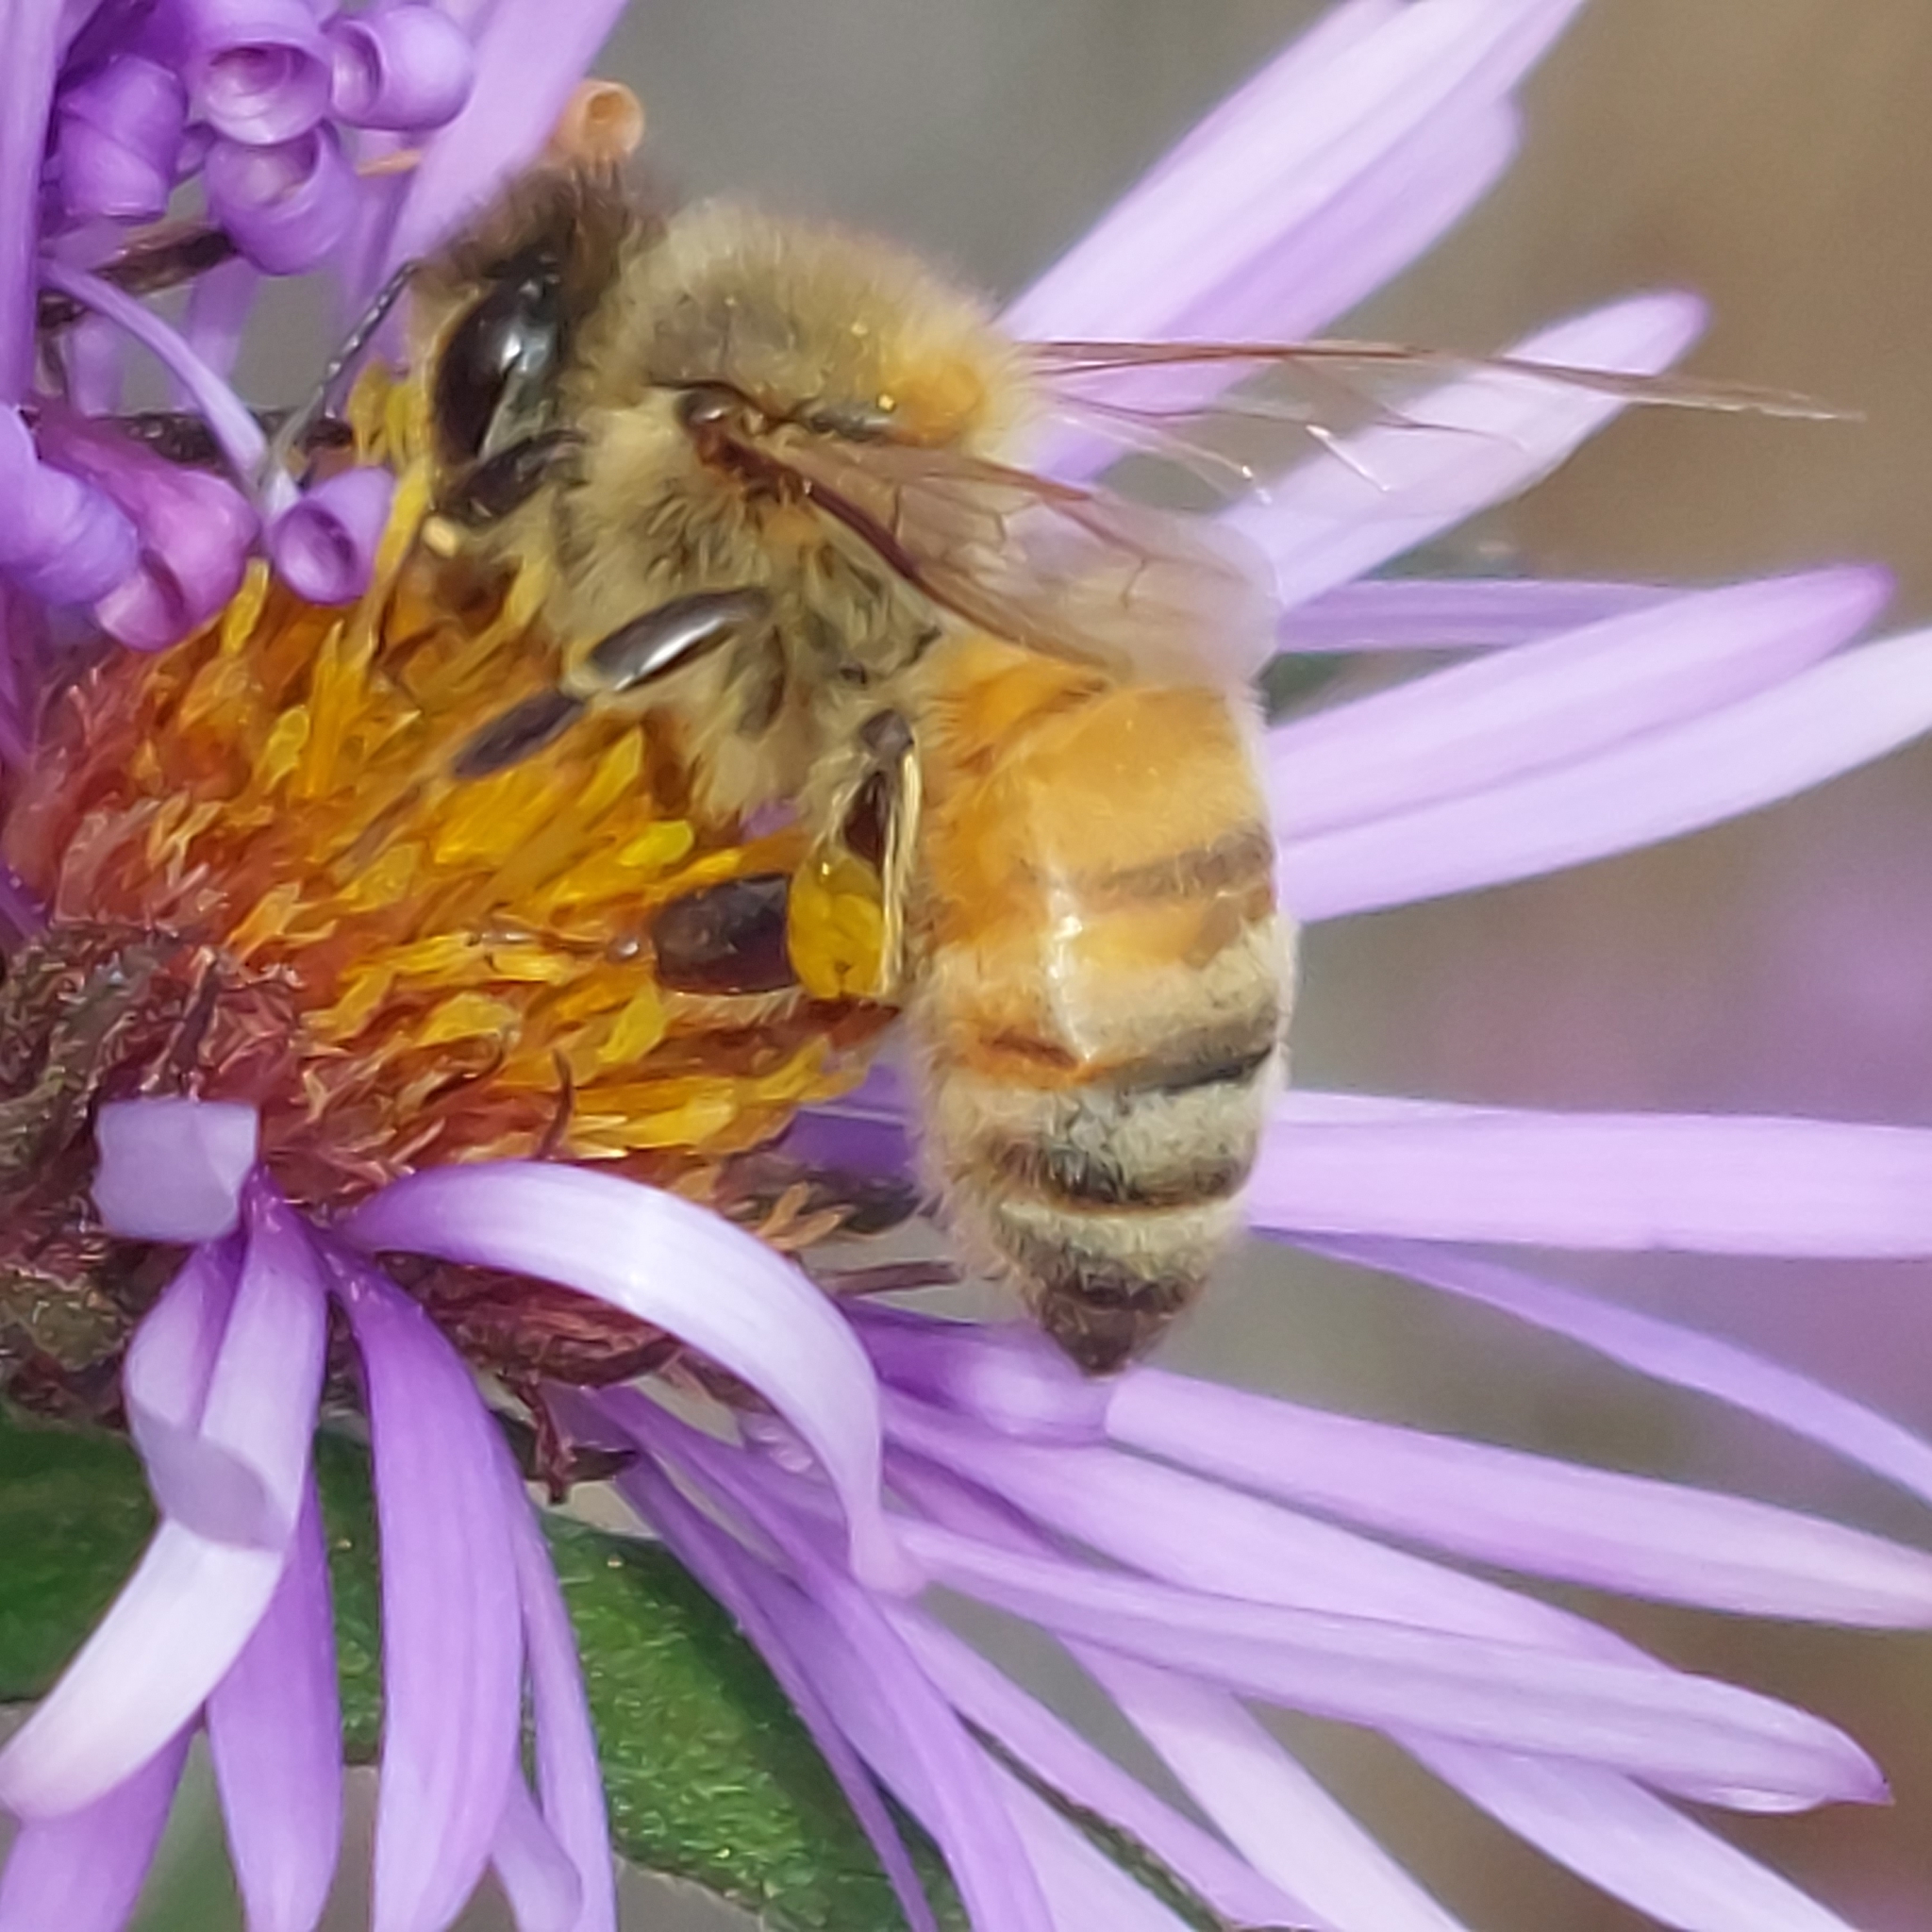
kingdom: Animalia
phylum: Arthropoda
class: Insecta
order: Hymenoptera
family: Apidae
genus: Apis
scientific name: Apis mellifera
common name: Honey bee
